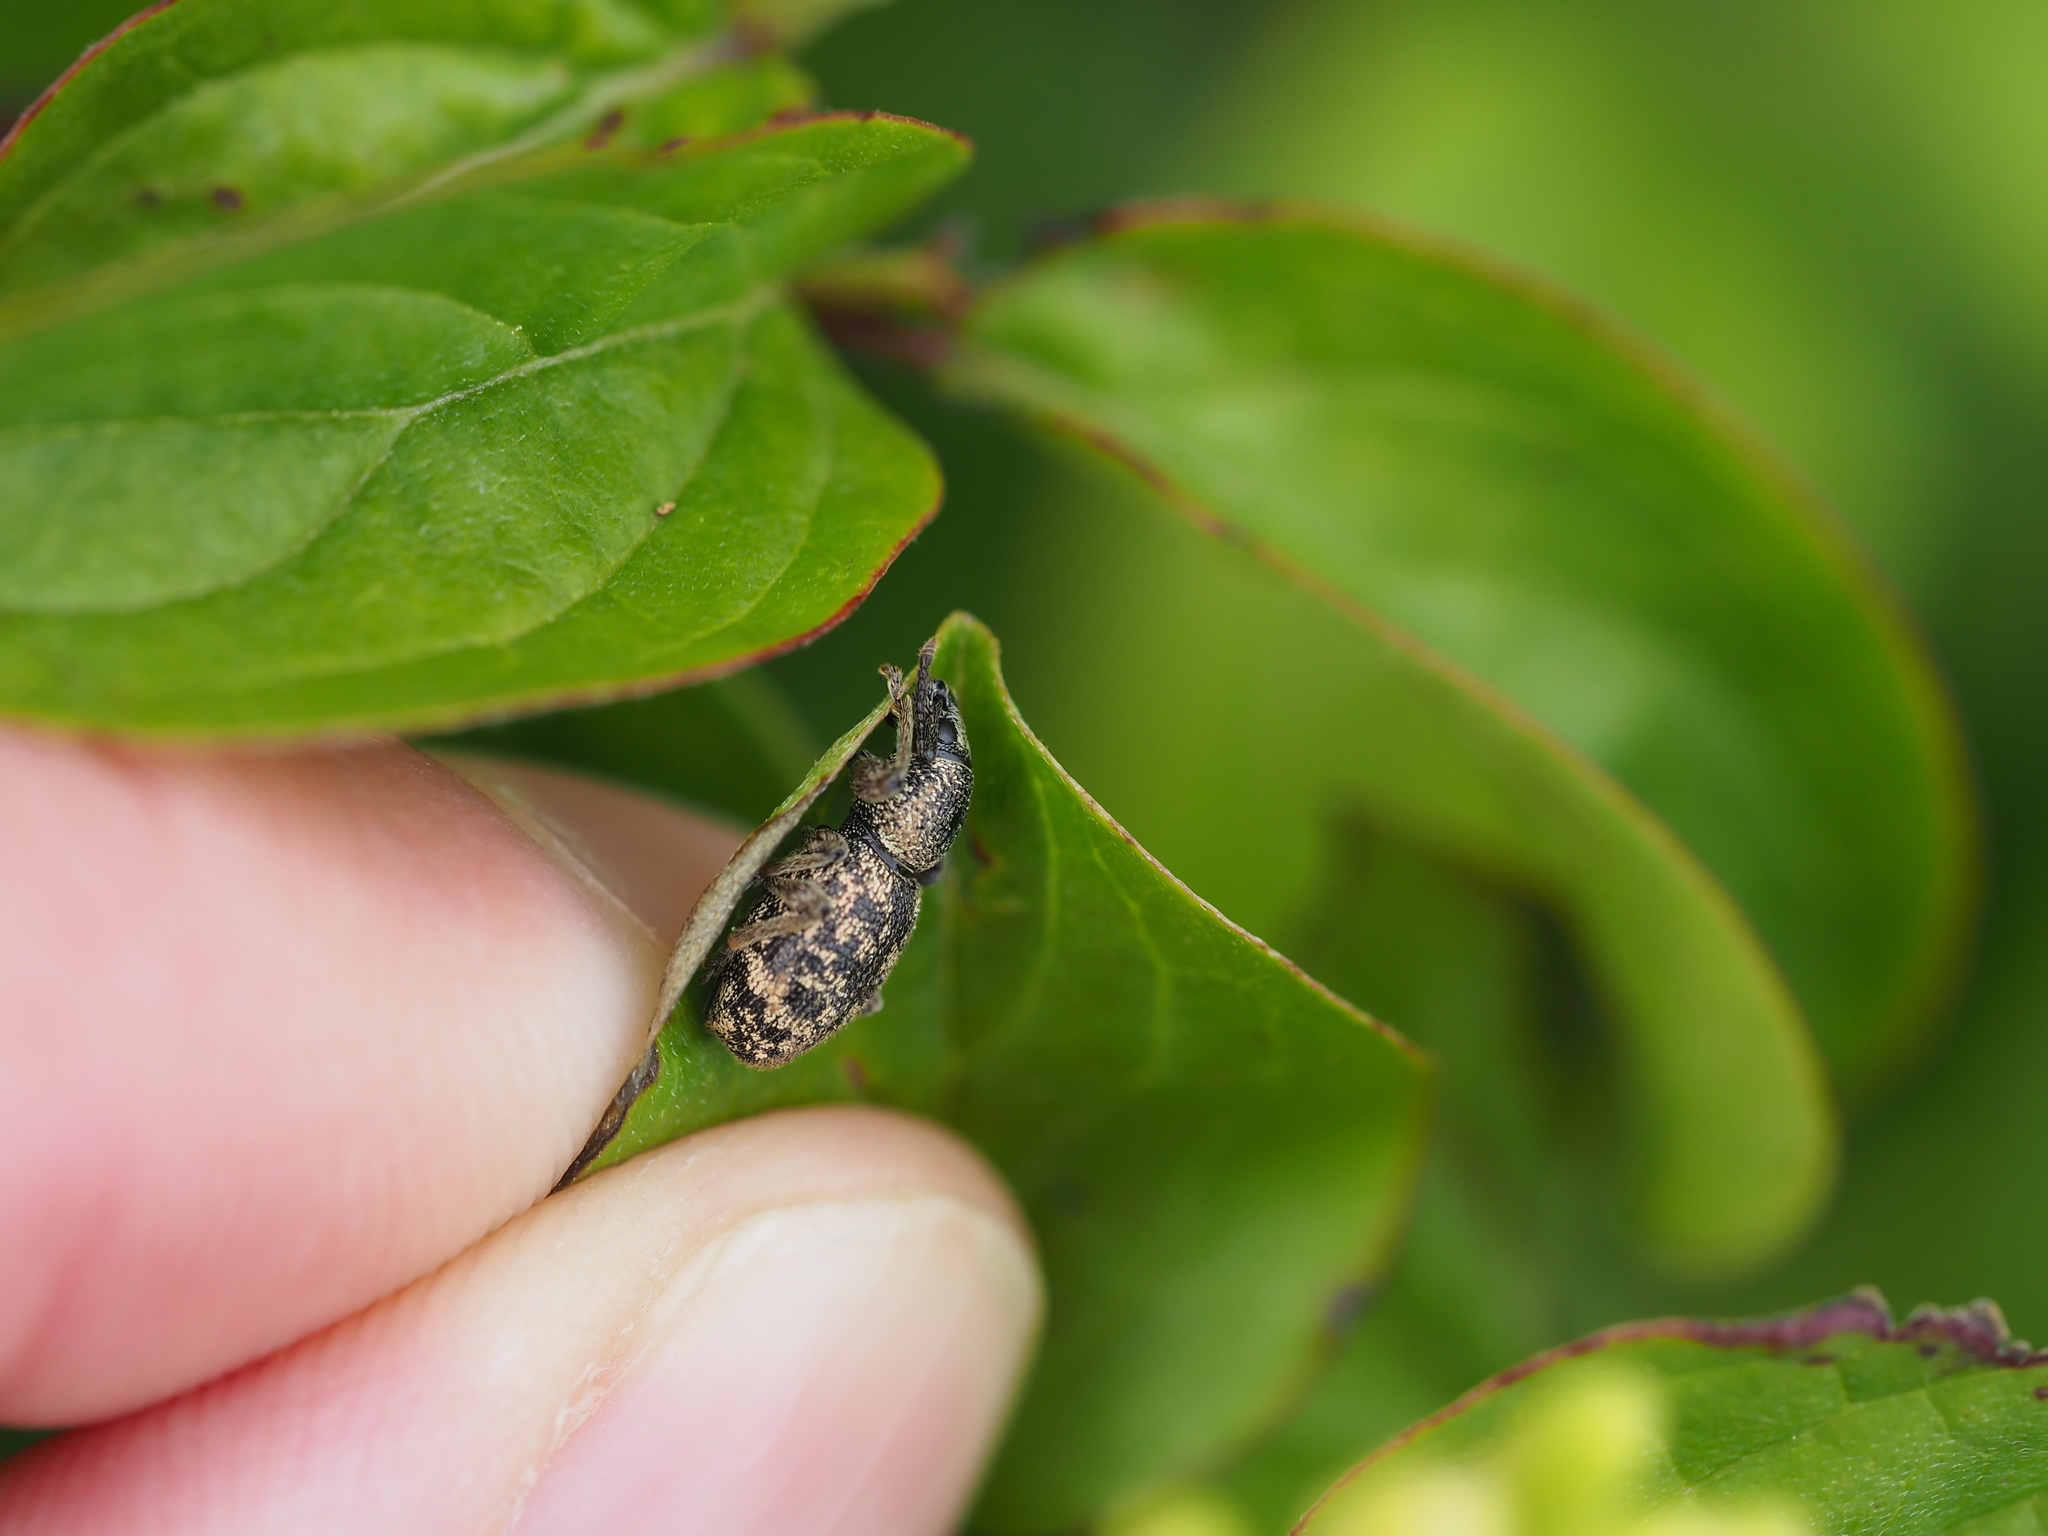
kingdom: Animalia
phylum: Arthropoda
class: Insecta
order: Coleoptera
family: Curculionidae
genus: Otiorhynchus
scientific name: Otiorhynchus fullo
